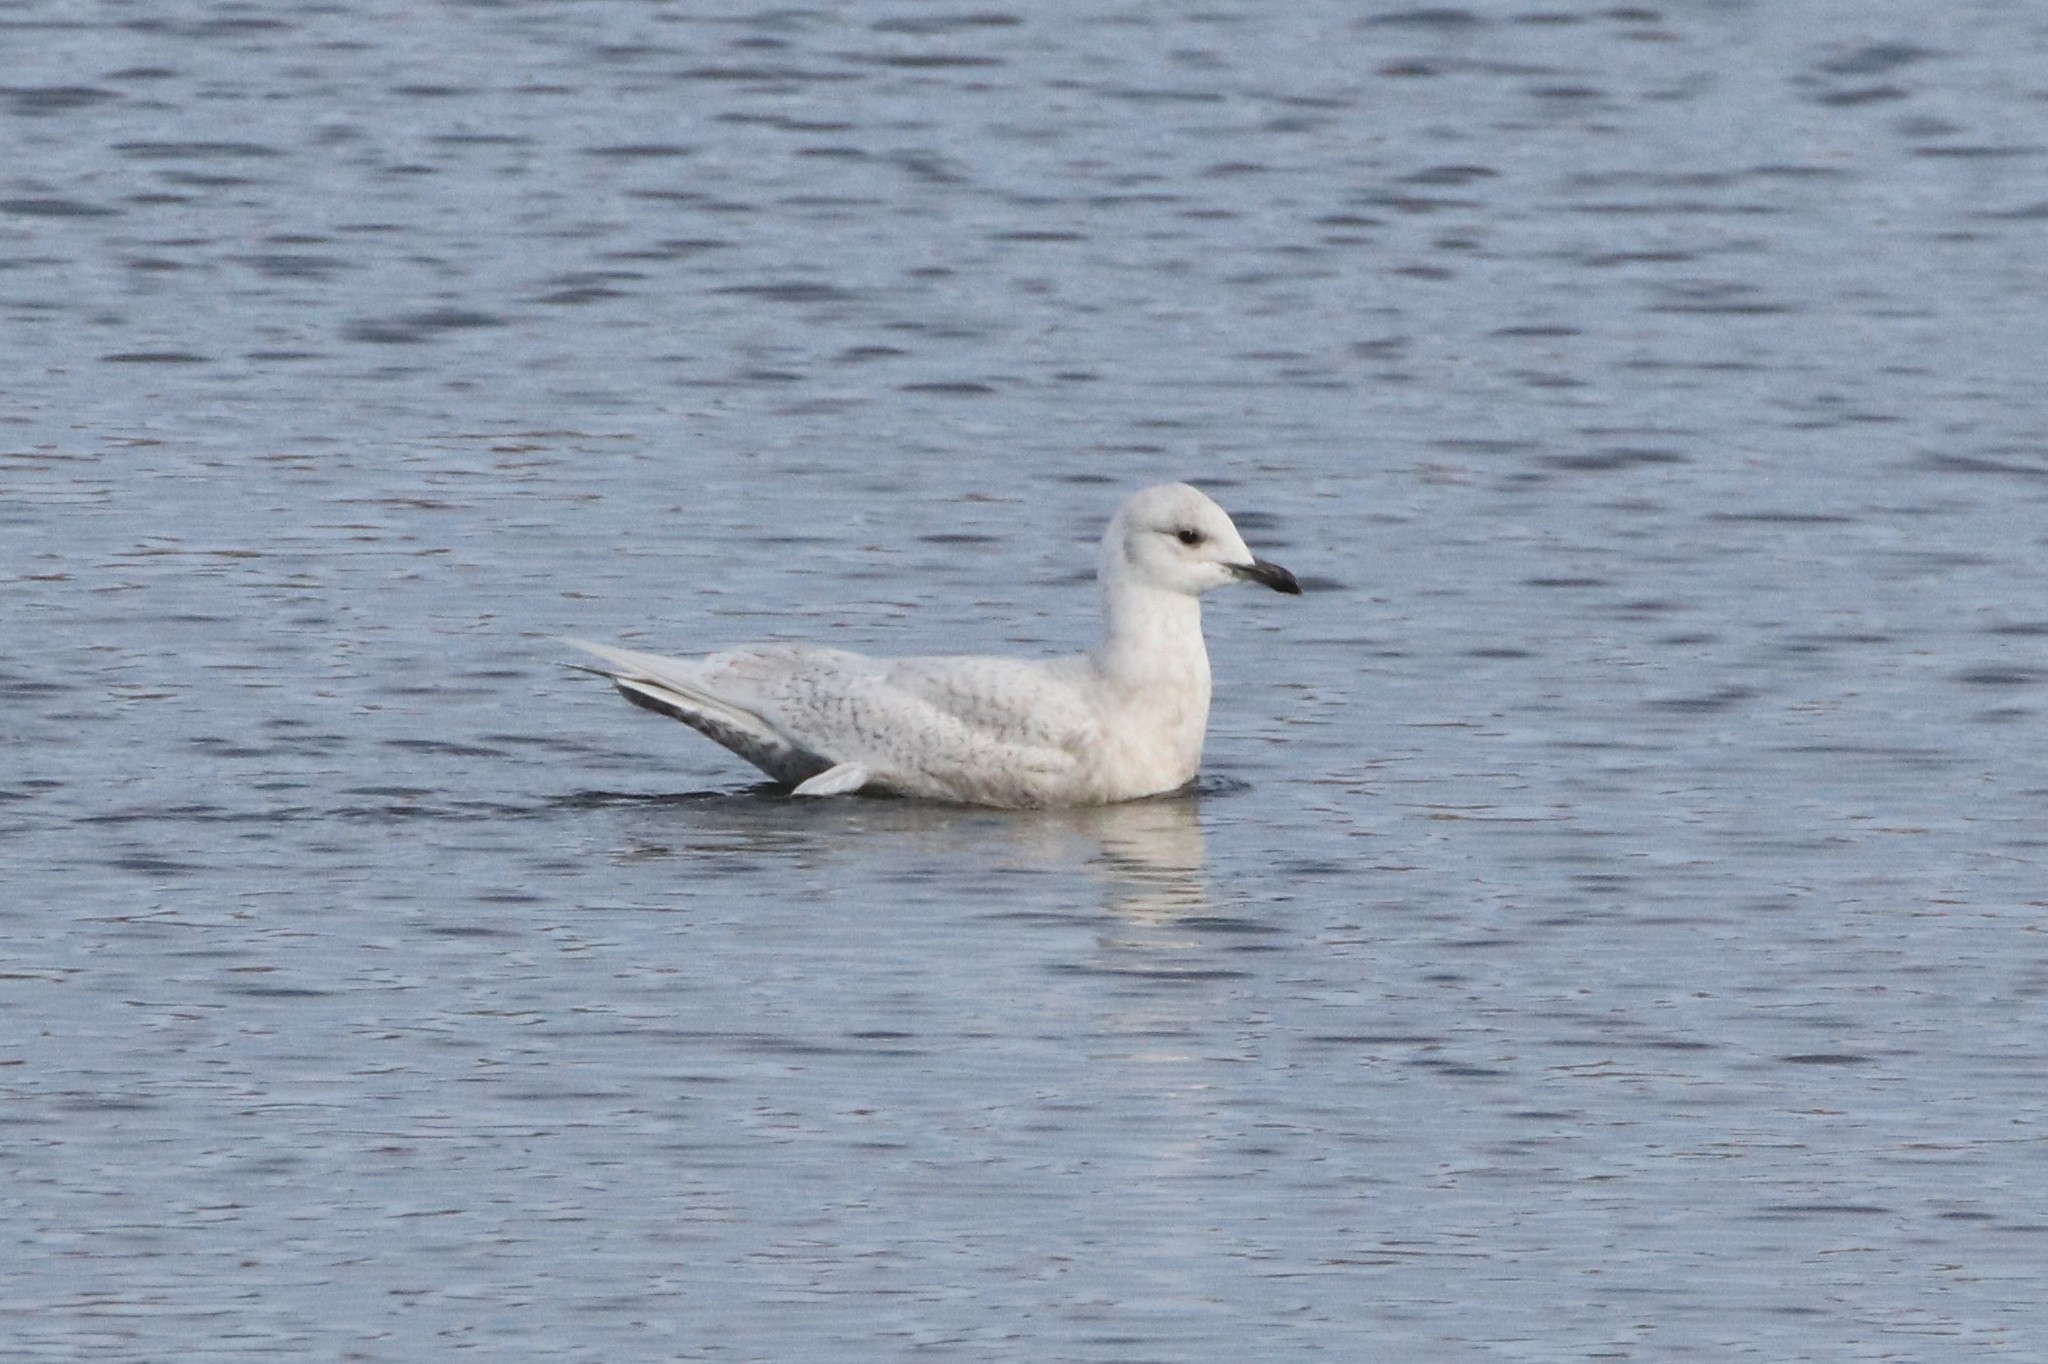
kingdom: Animalia
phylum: Chordata
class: Aves
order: Charadriiformes
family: Laridae
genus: Larus
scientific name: Larus glaucoides
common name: Iceland gull
